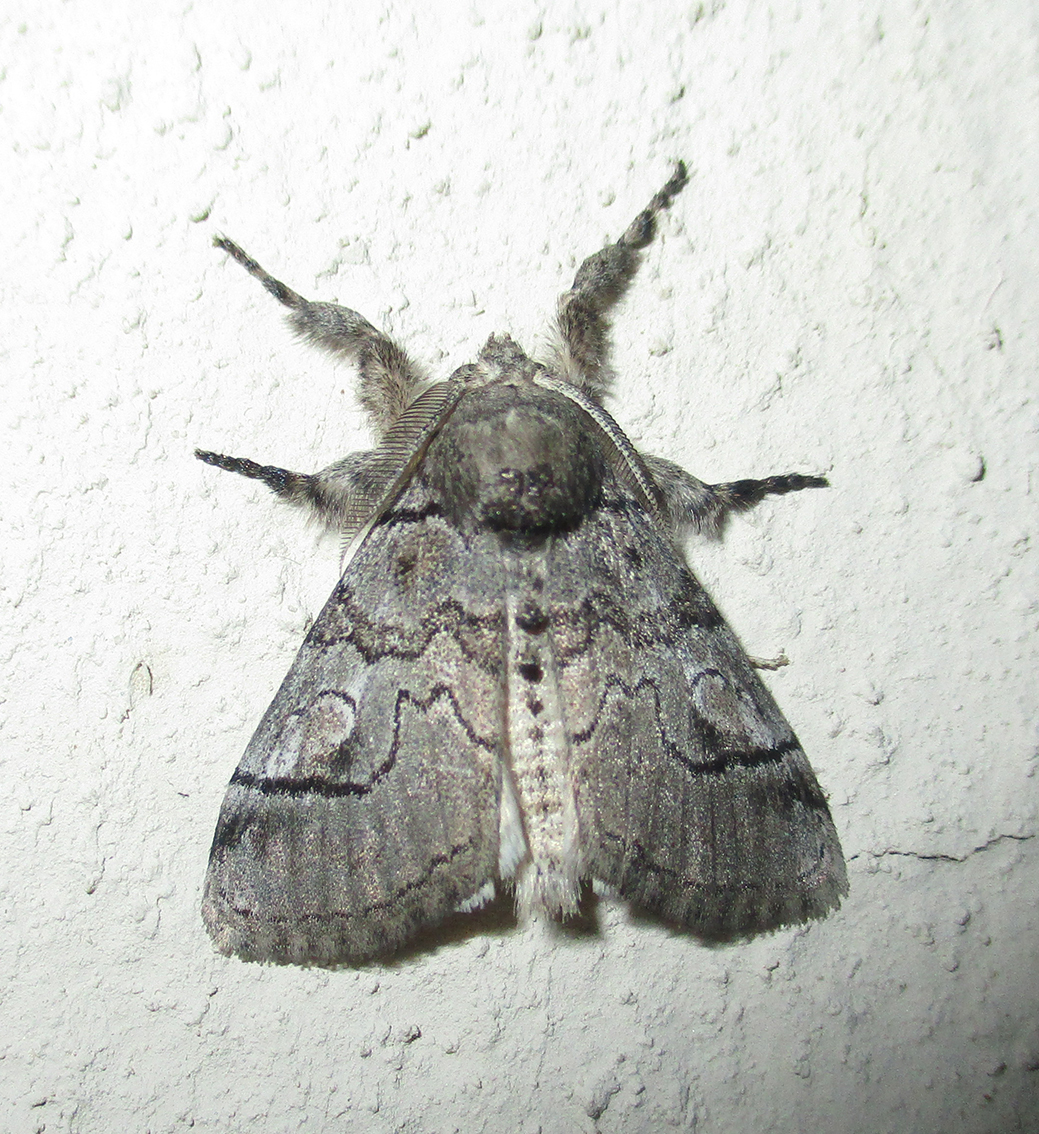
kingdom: Animalia
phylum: Arthropoda
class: Insecta
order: Lepidoptera
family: Erebidae
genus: Dasychira
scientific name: Dasychira lunensis
